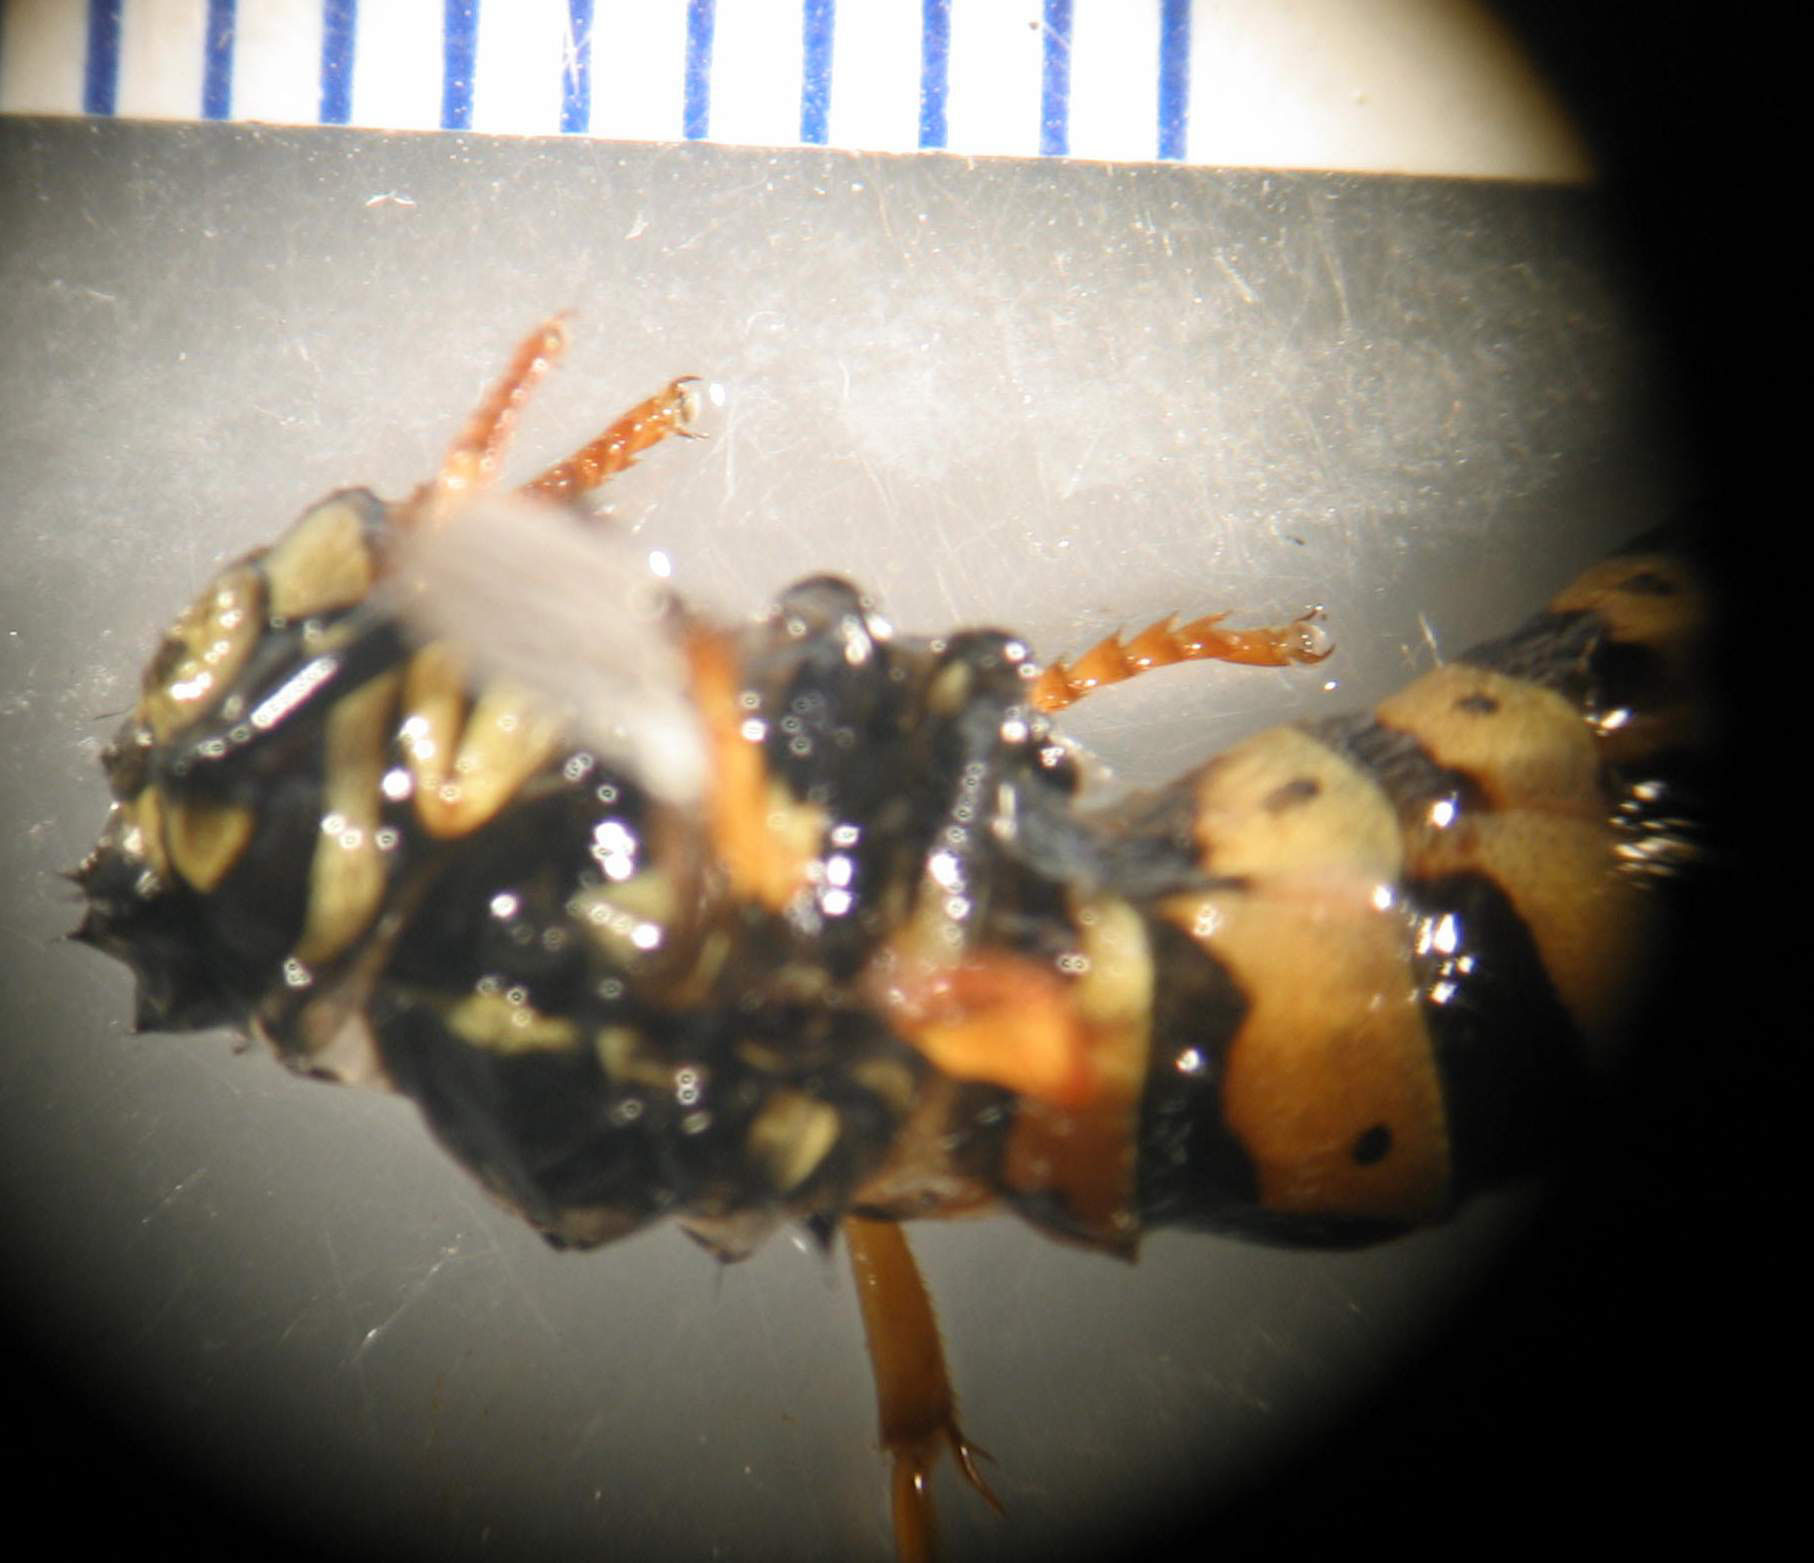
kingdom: Animalia
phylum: Arthropoda
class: Insecta
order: Hymenoptera
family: Vespidae
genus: Vespula
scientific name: Vespula germanica
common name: German wasp
